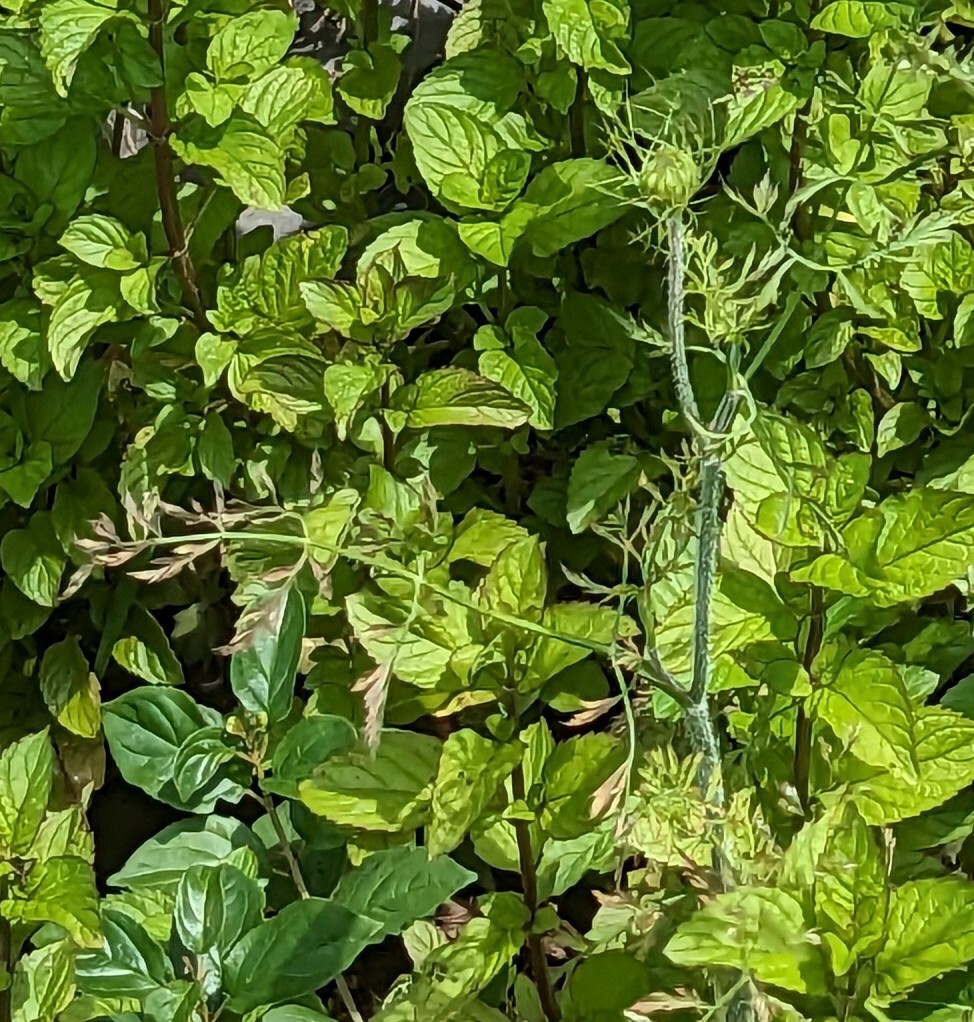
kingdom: Plantae
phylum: Tracheophyta
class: Magnoliopsida
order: Apiales
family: Apiaceae
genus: Daucus
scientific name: Daucus carota
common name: Wild carrot
